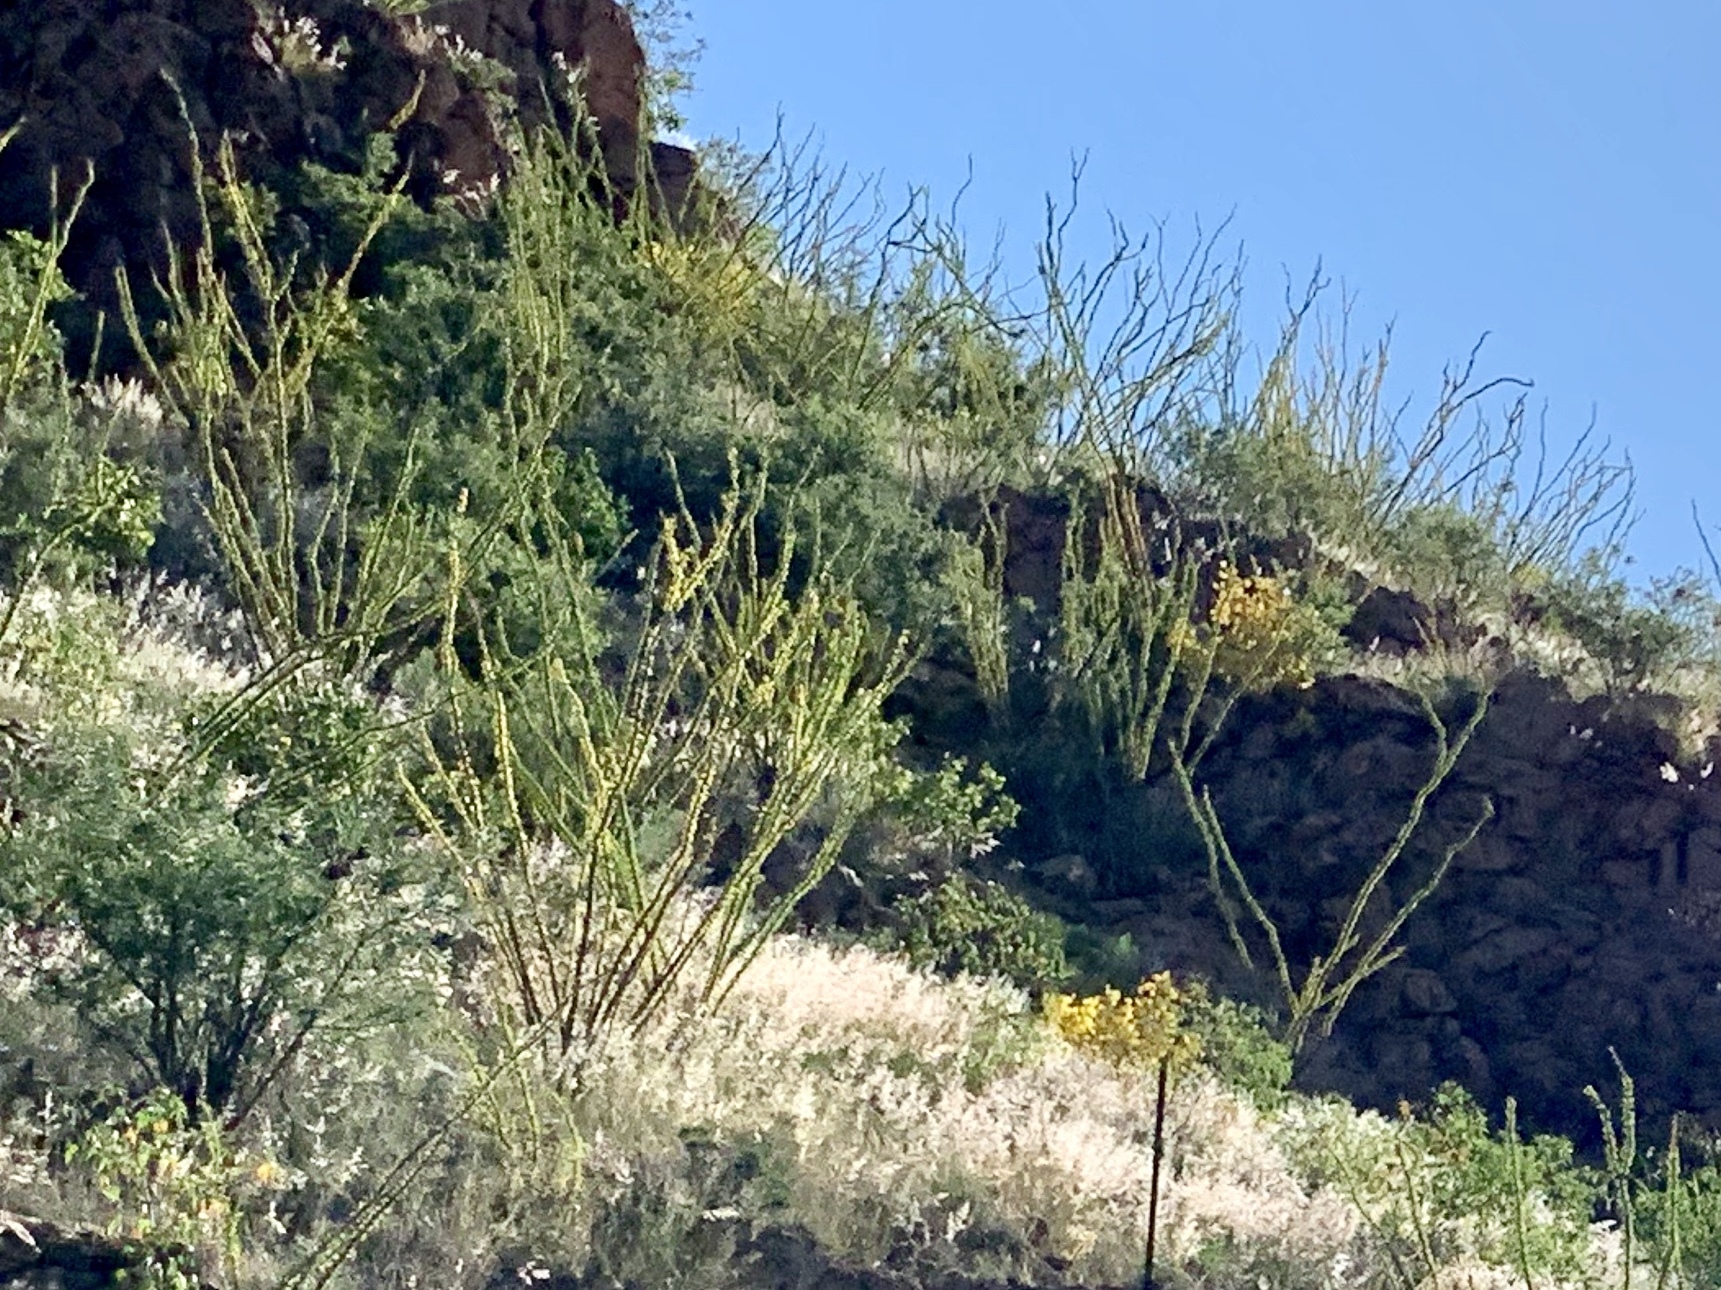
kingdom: Plantae
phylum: Tracheophyta
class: Magnoliopsida
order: Ericales
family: Fouquieriaceae
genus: Fouquieria
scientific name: Fouquieria splendens
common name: Vine-cactus
